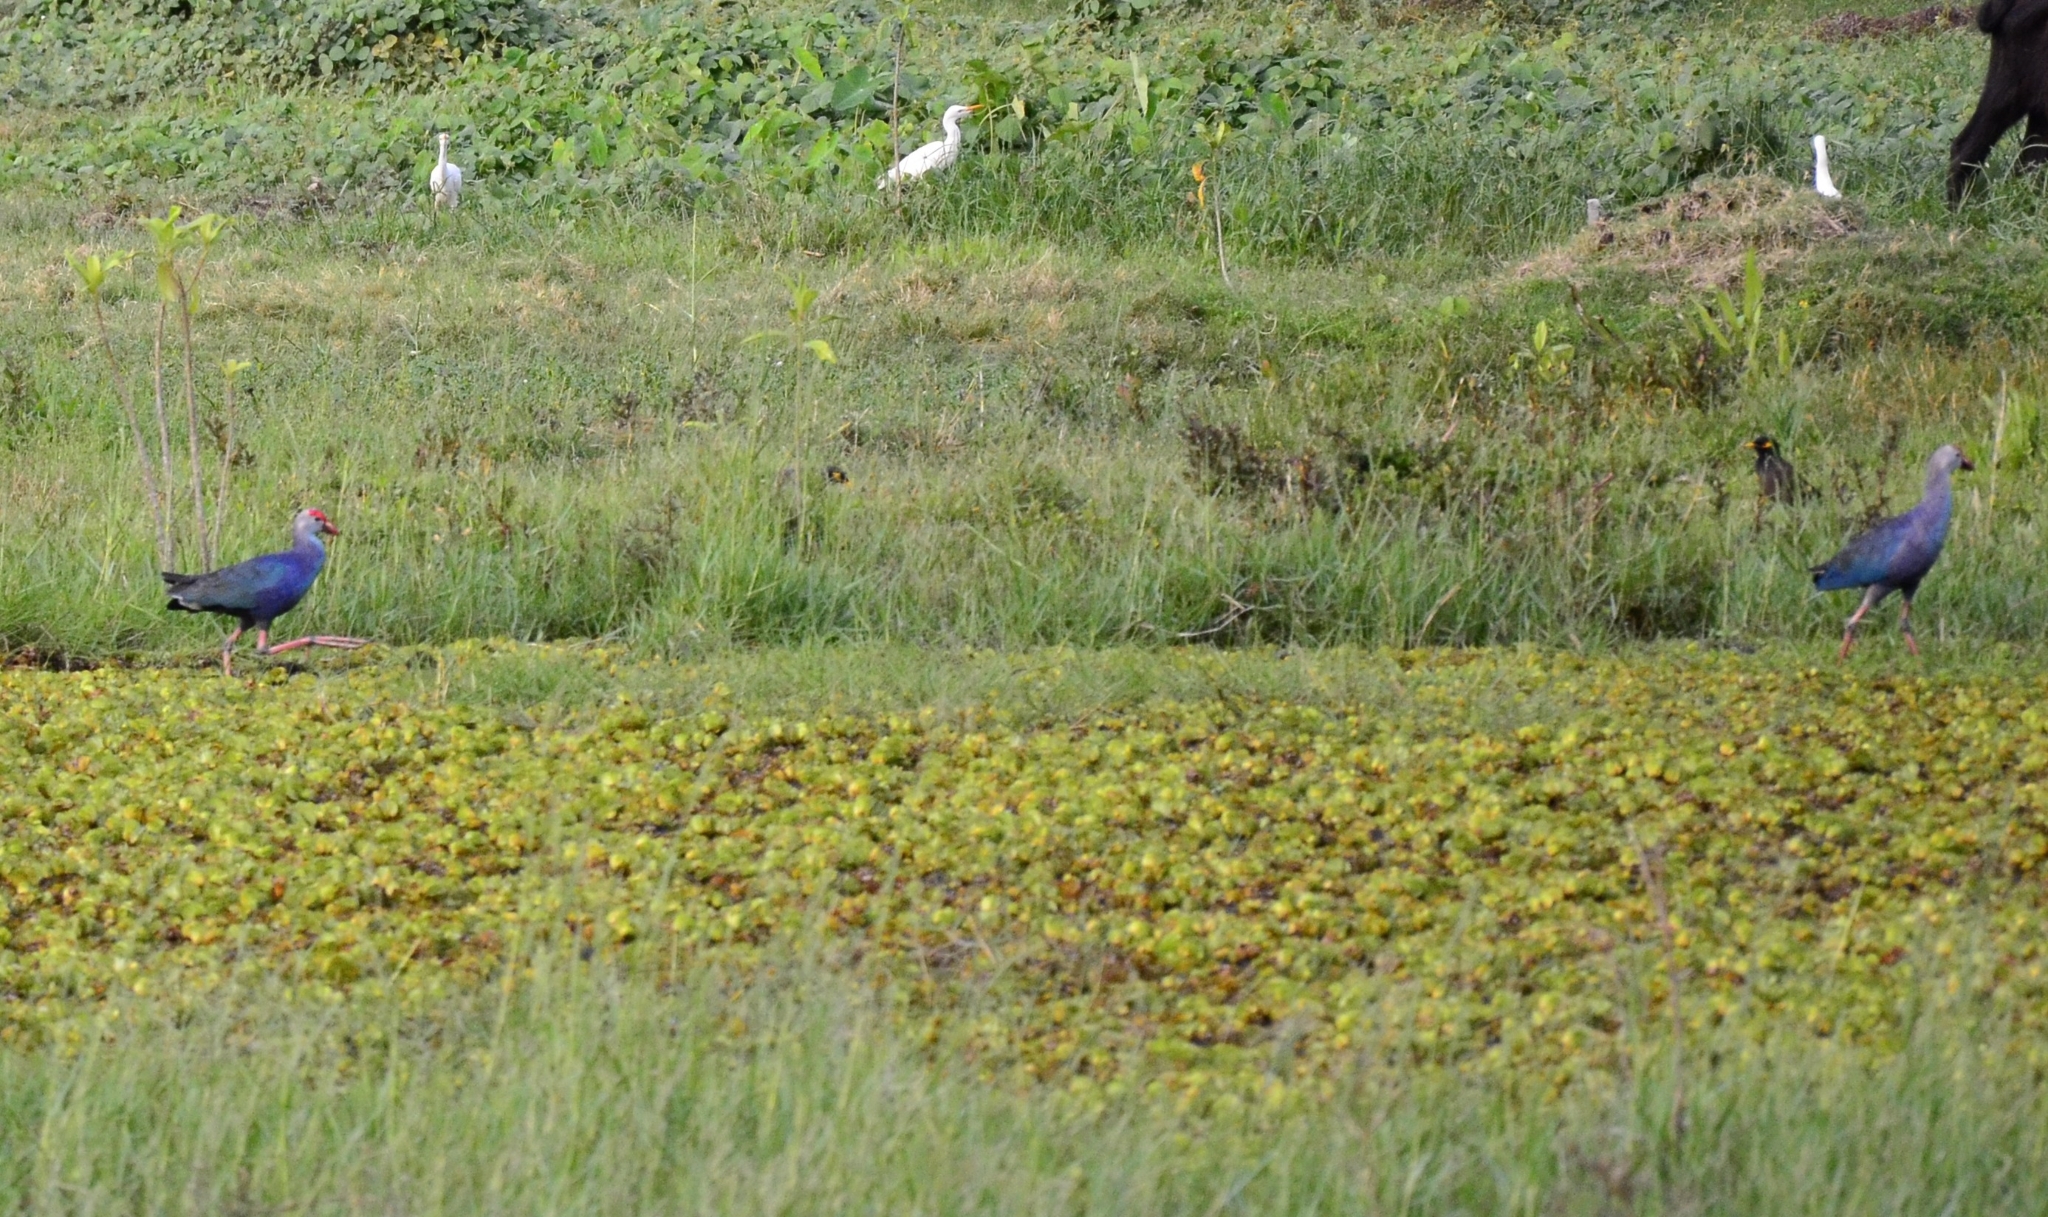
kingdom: Animalia
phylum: Chordata
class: Aves
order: Gruiformes
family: Rallidae
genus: Porphyrio
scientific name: Porphyrio porphyrio
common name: Purple swamphen
